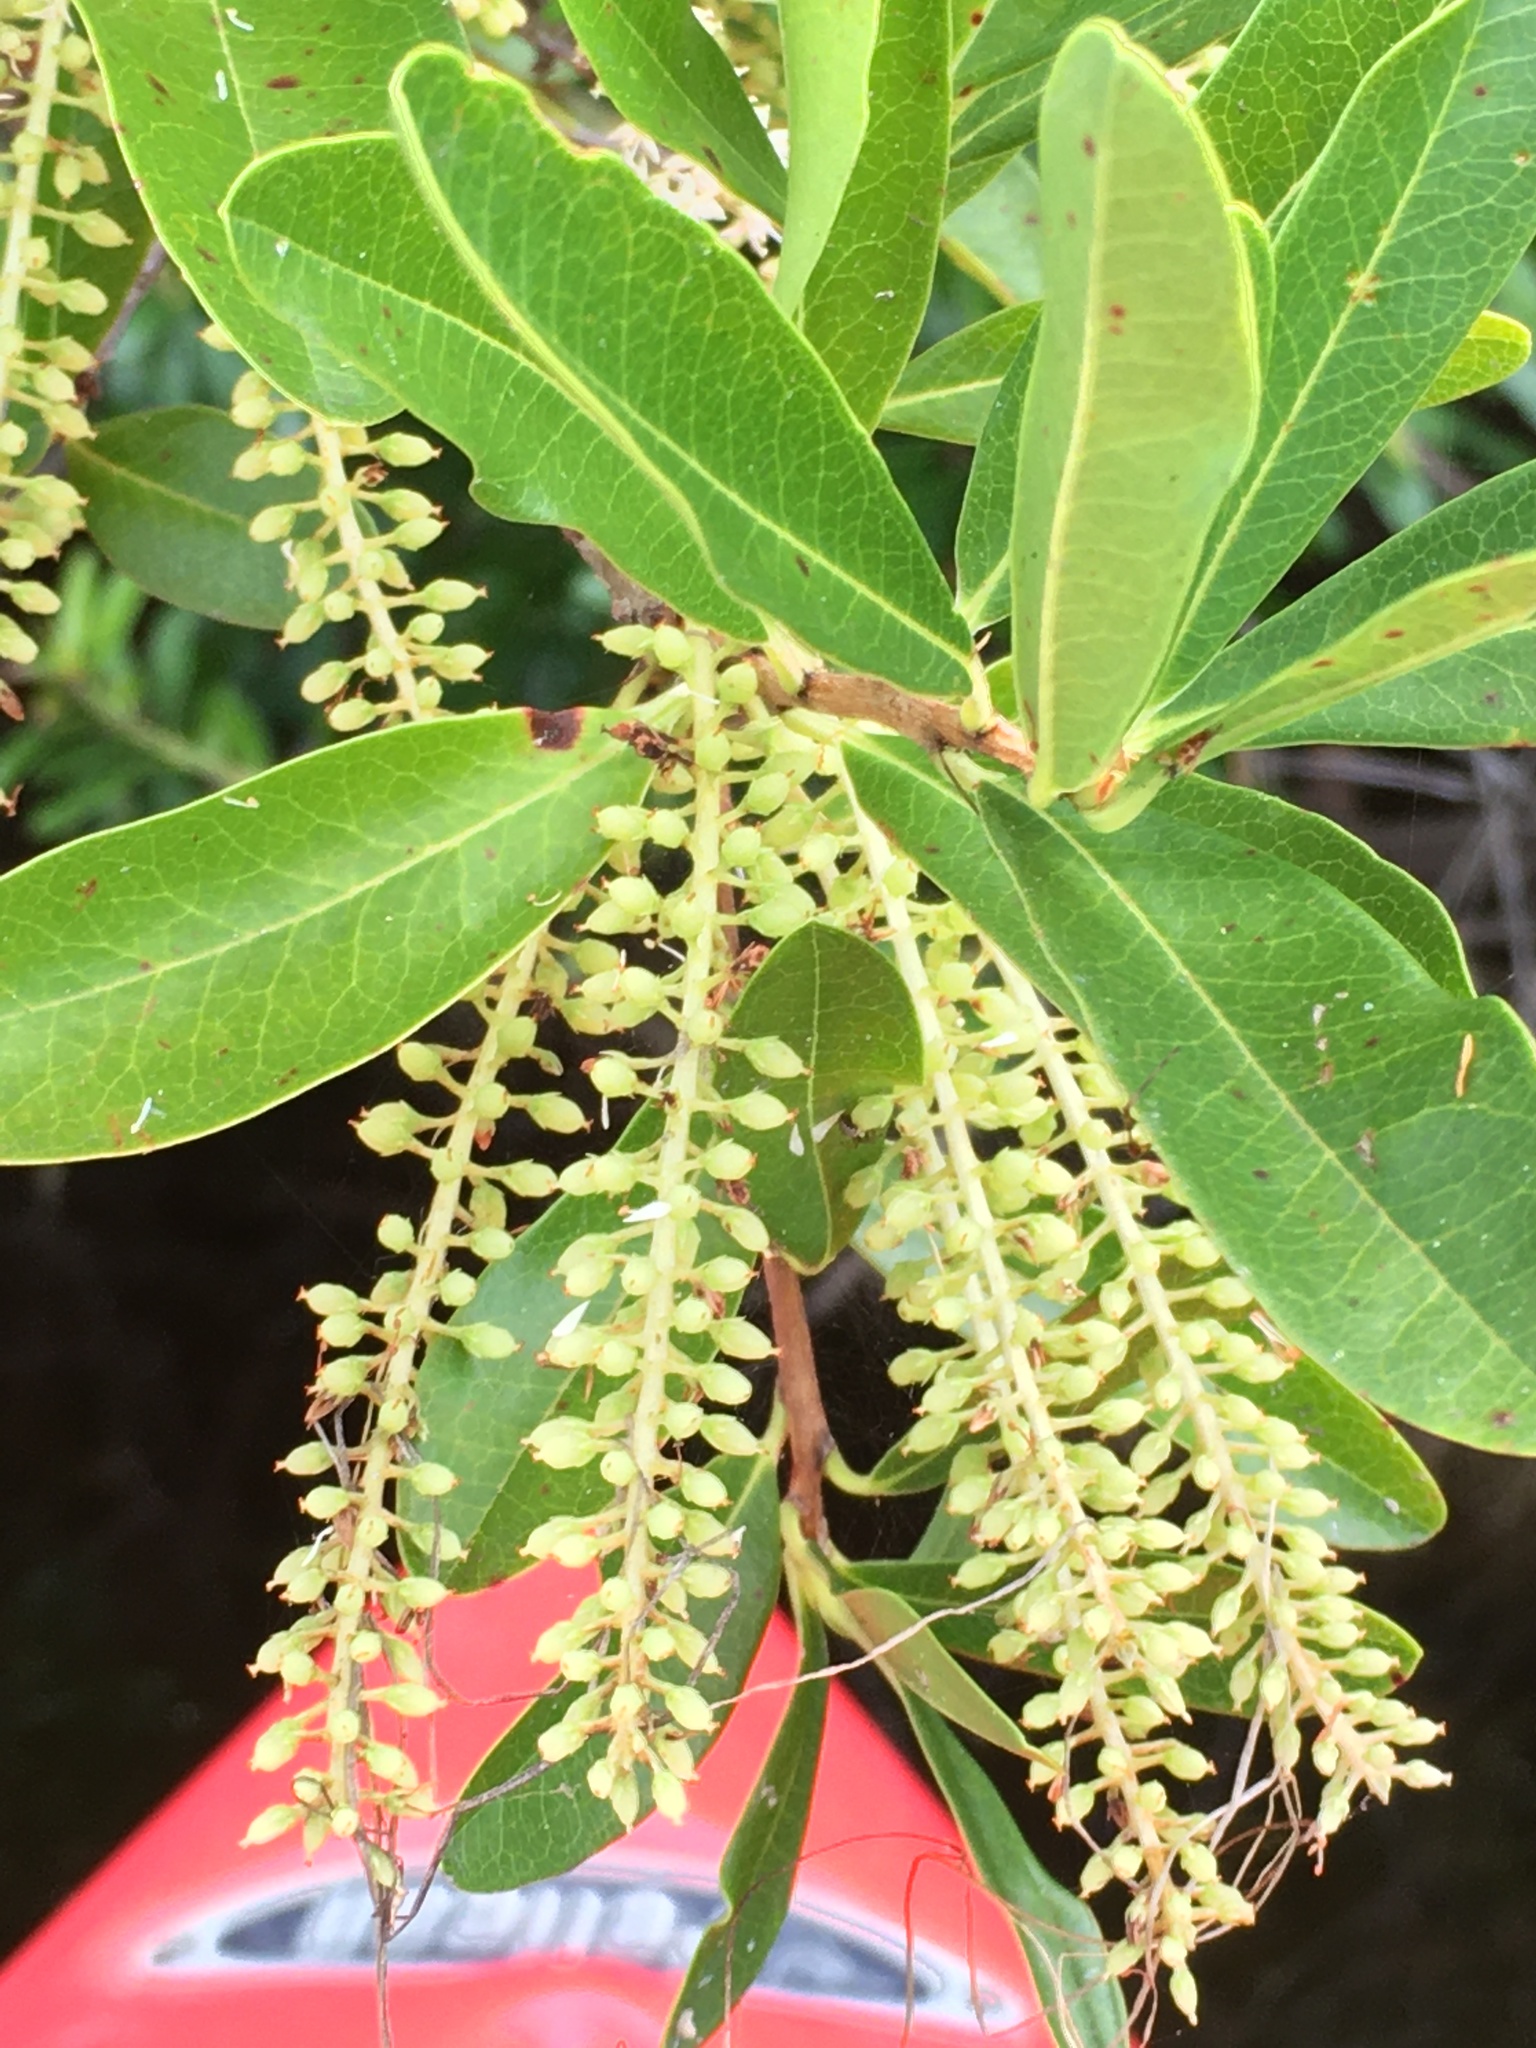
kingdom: Plantae
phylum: Tracheophyta
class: Magnoliopsida
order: Ericales
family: Cyrillaceae
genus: Cyrilla
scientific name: Cyrilla racemiflora
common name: Black titi
